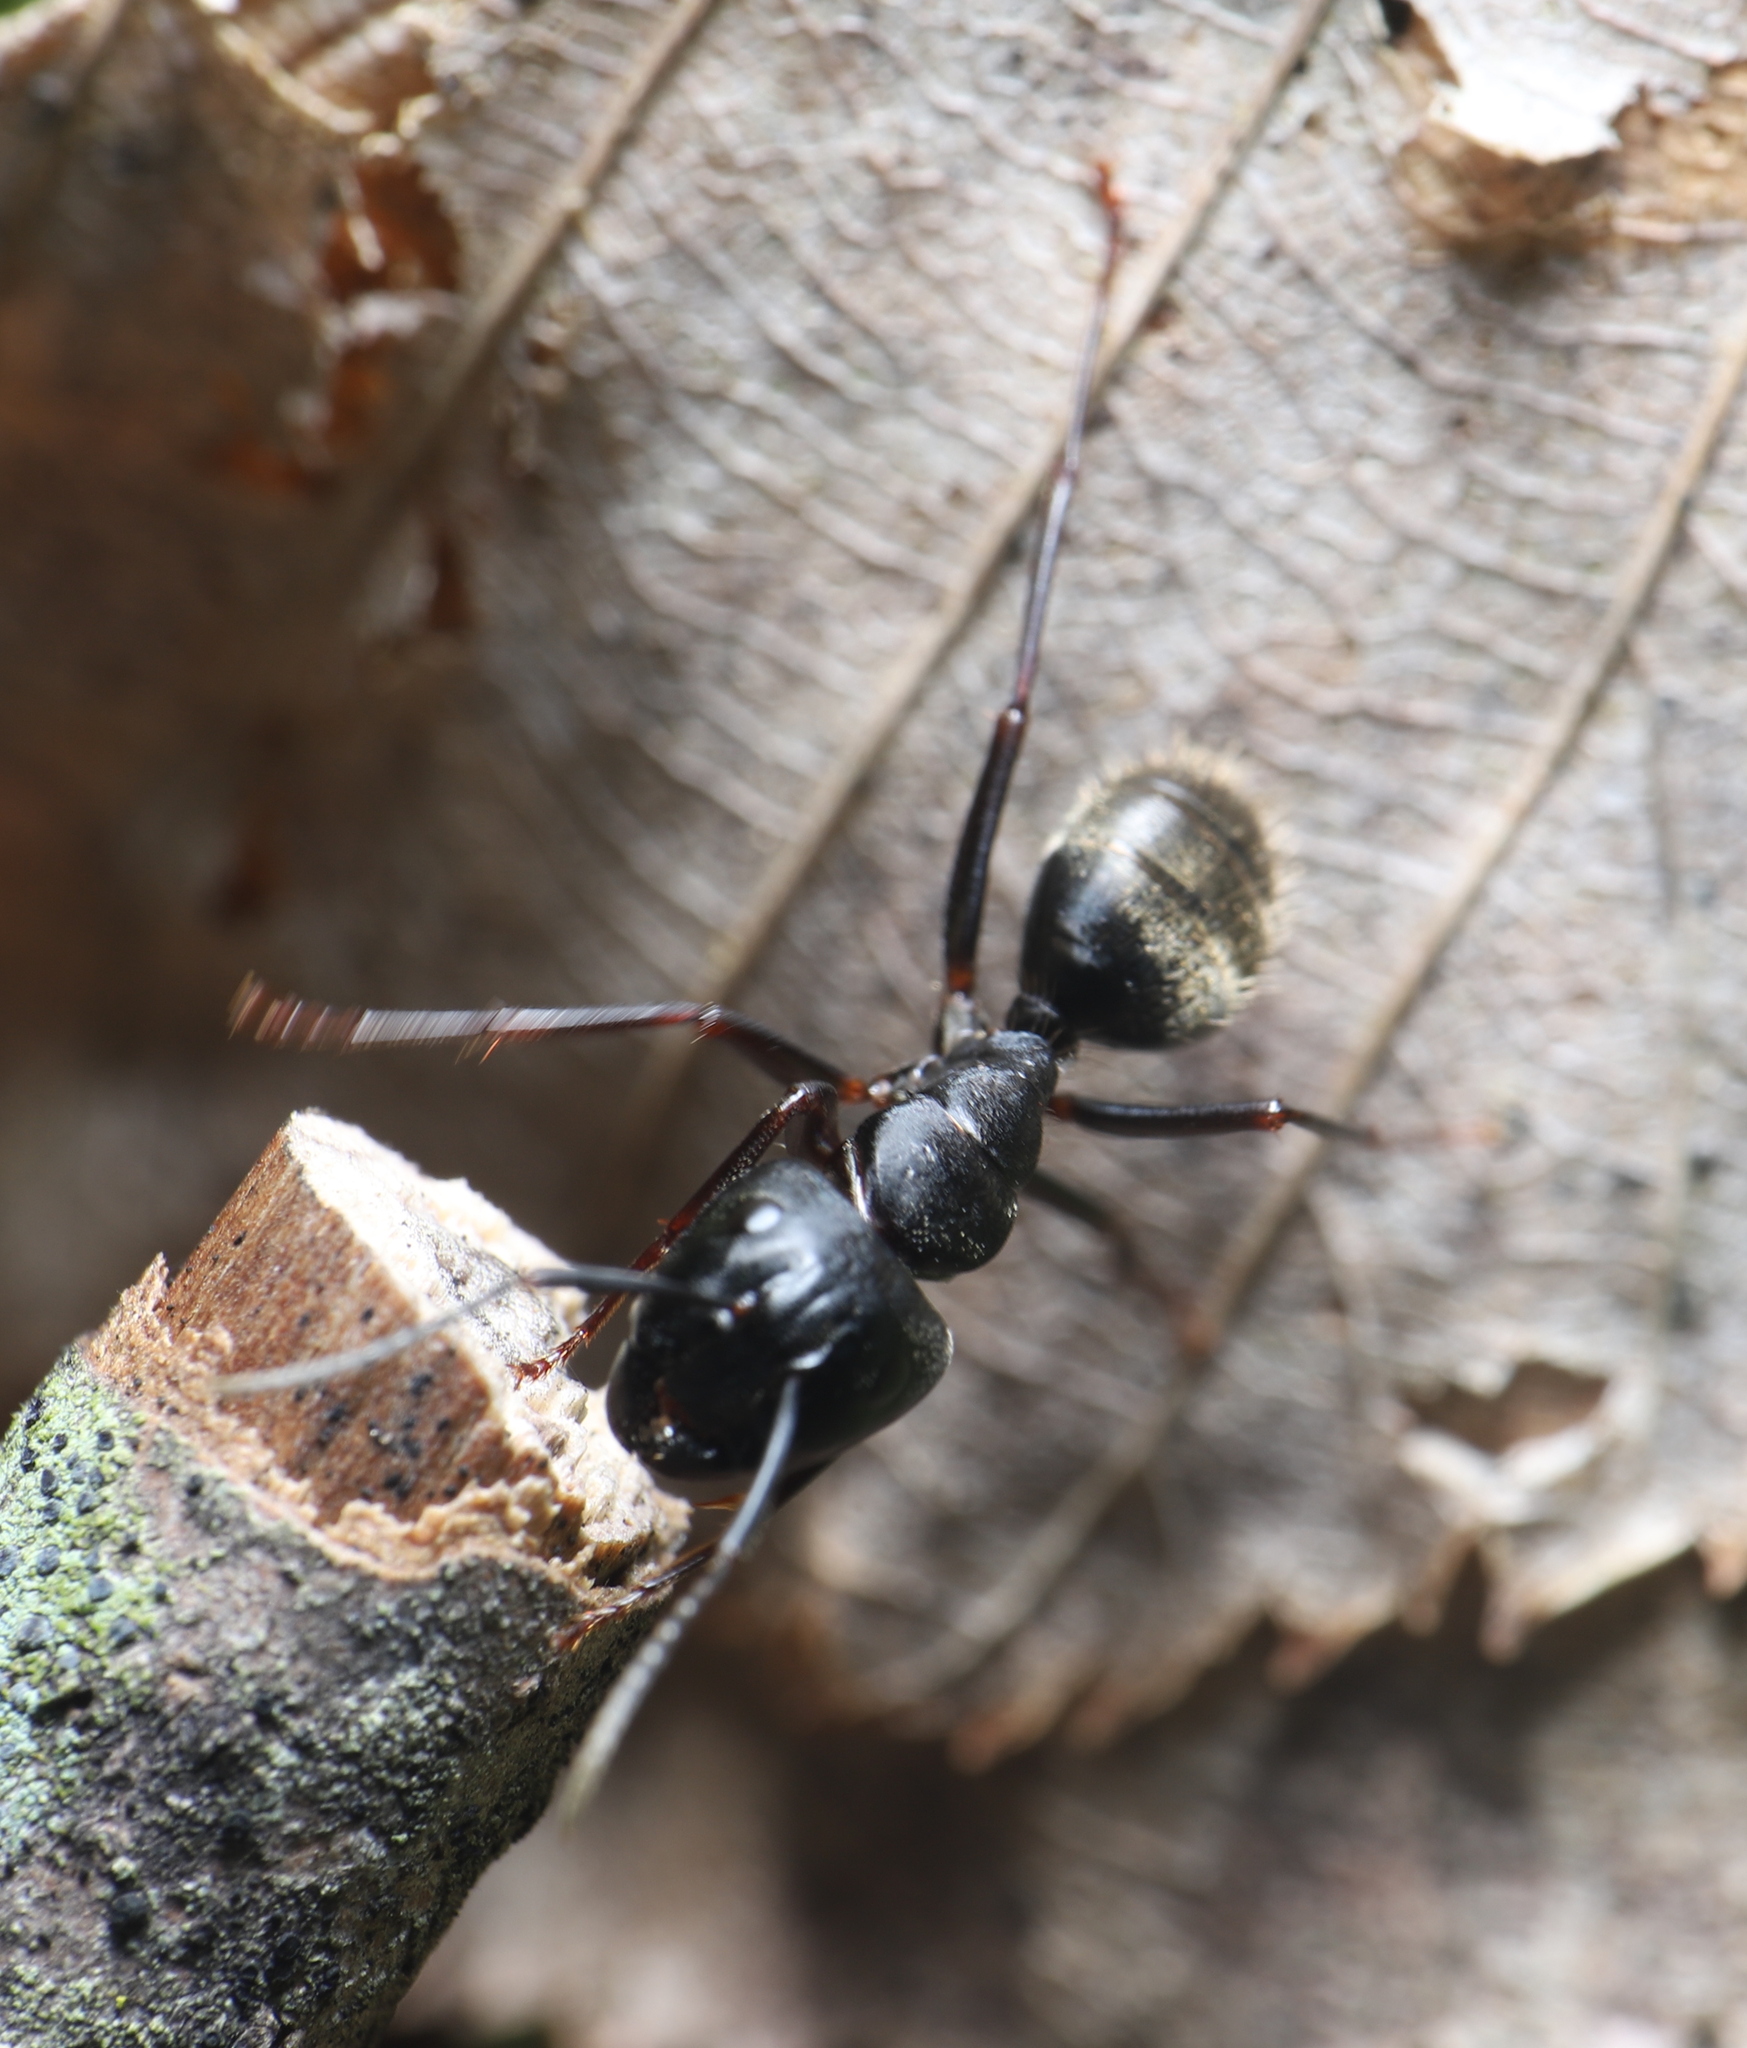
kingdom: Animalia
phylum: Arthropoda
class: Insecta
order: Hymenoptera
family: Formicidae
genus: Camponotus
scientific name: Camponotus pennsylvanicus
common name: Black carpenter ant
